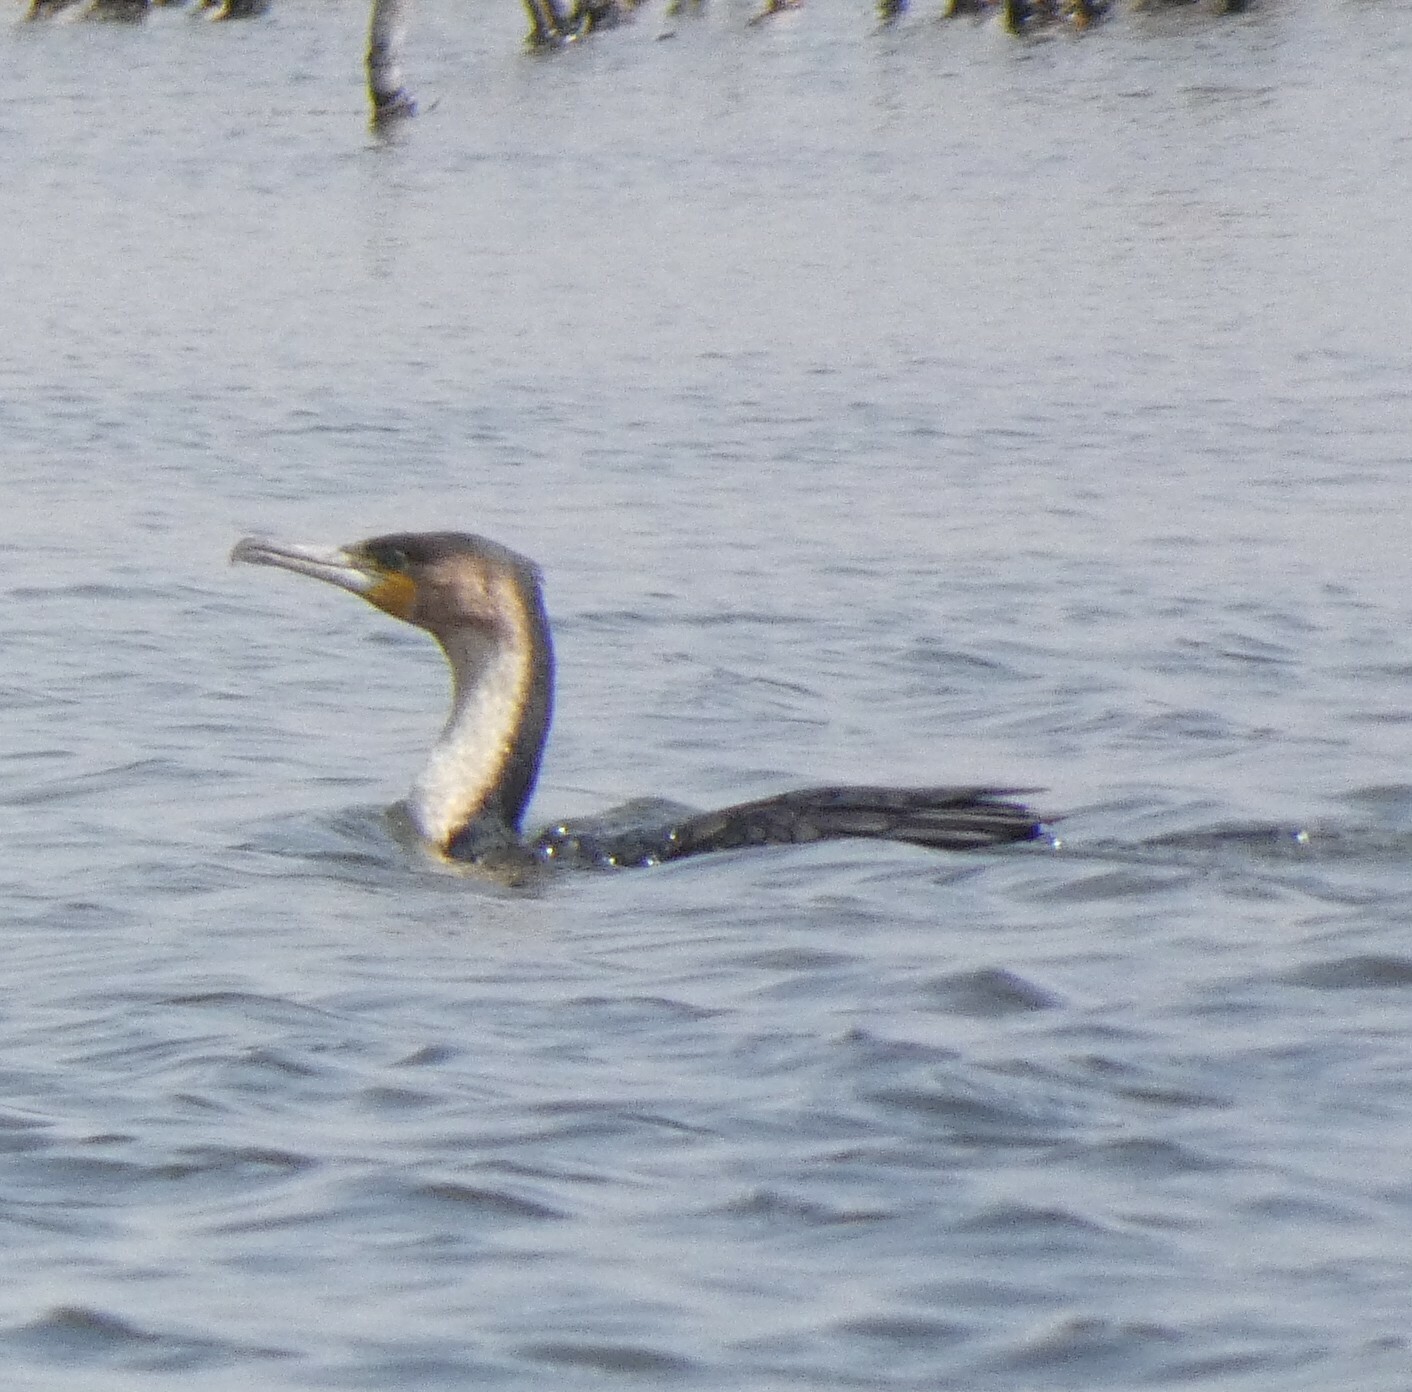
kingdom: Animalia
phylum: Chordata
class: Aves
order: Suliformes
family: Phalacrocoracidae
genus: Phalacrocorax
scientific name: Phalacrocorax carbo
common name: Great cormorant
